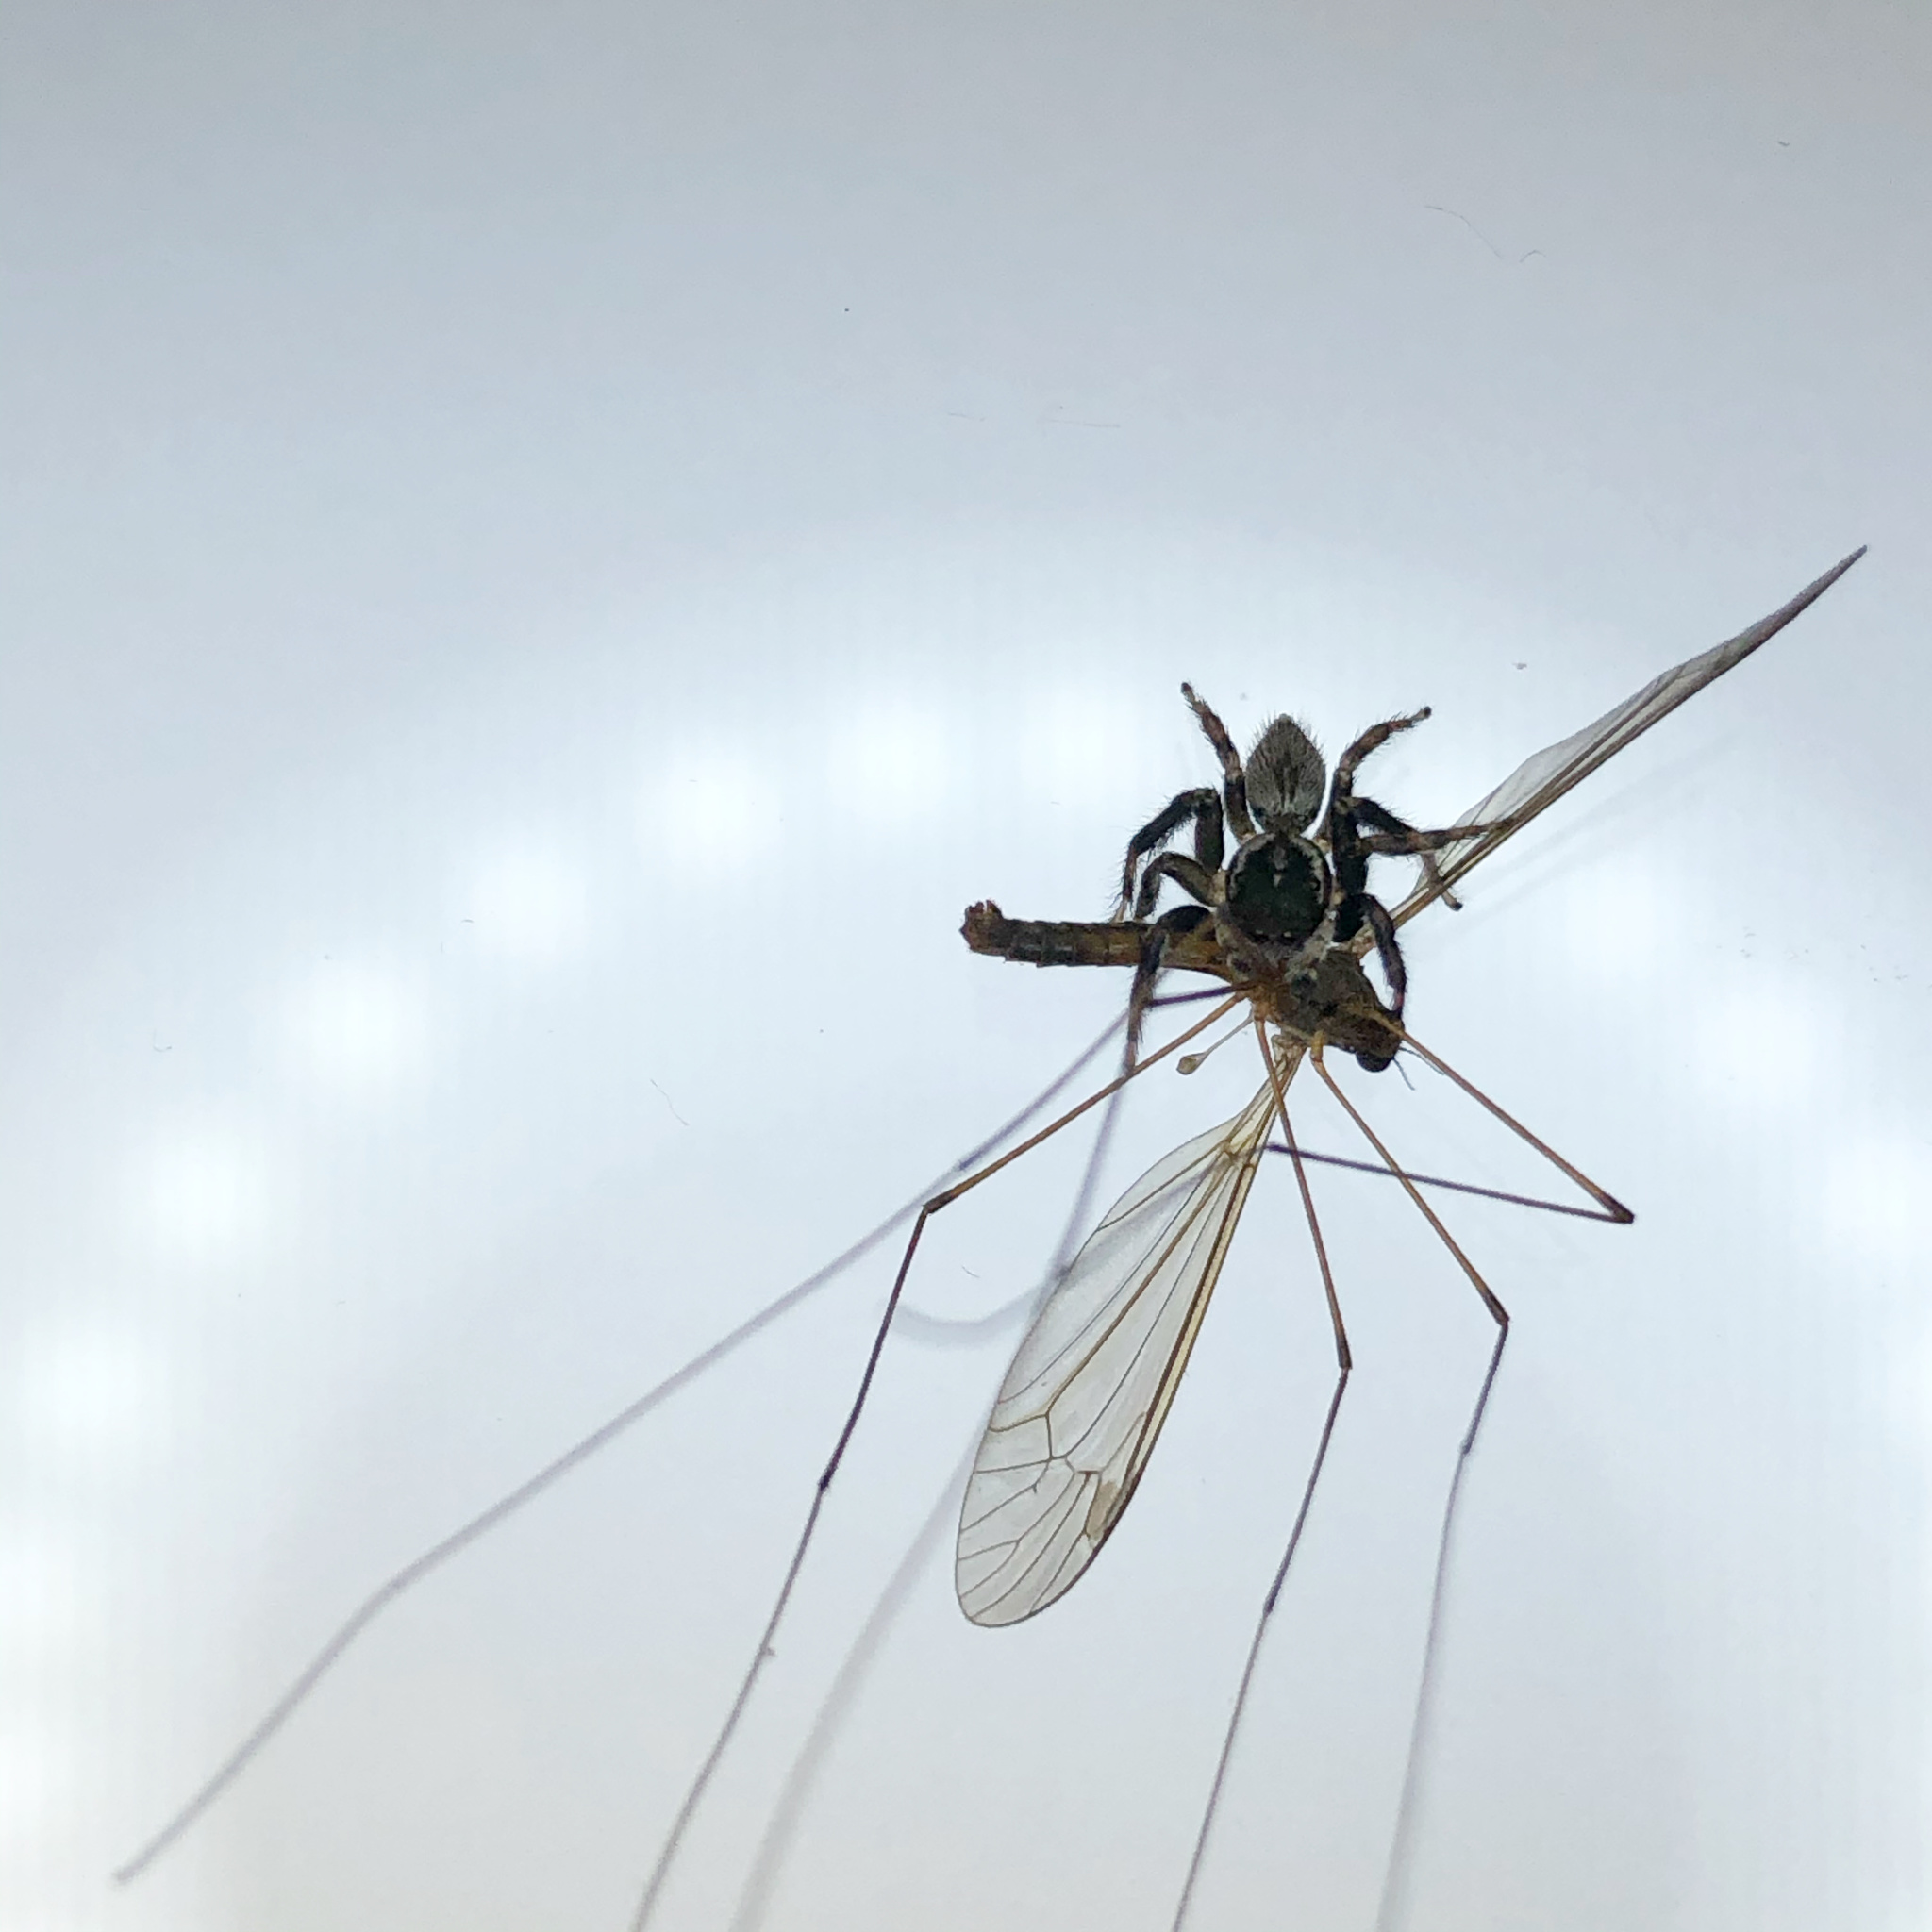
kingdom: Animalia
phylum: Arthropoda
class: Arachnida
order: Araneae
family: Salticidae
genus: Maratus
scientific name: Maratus griseus
